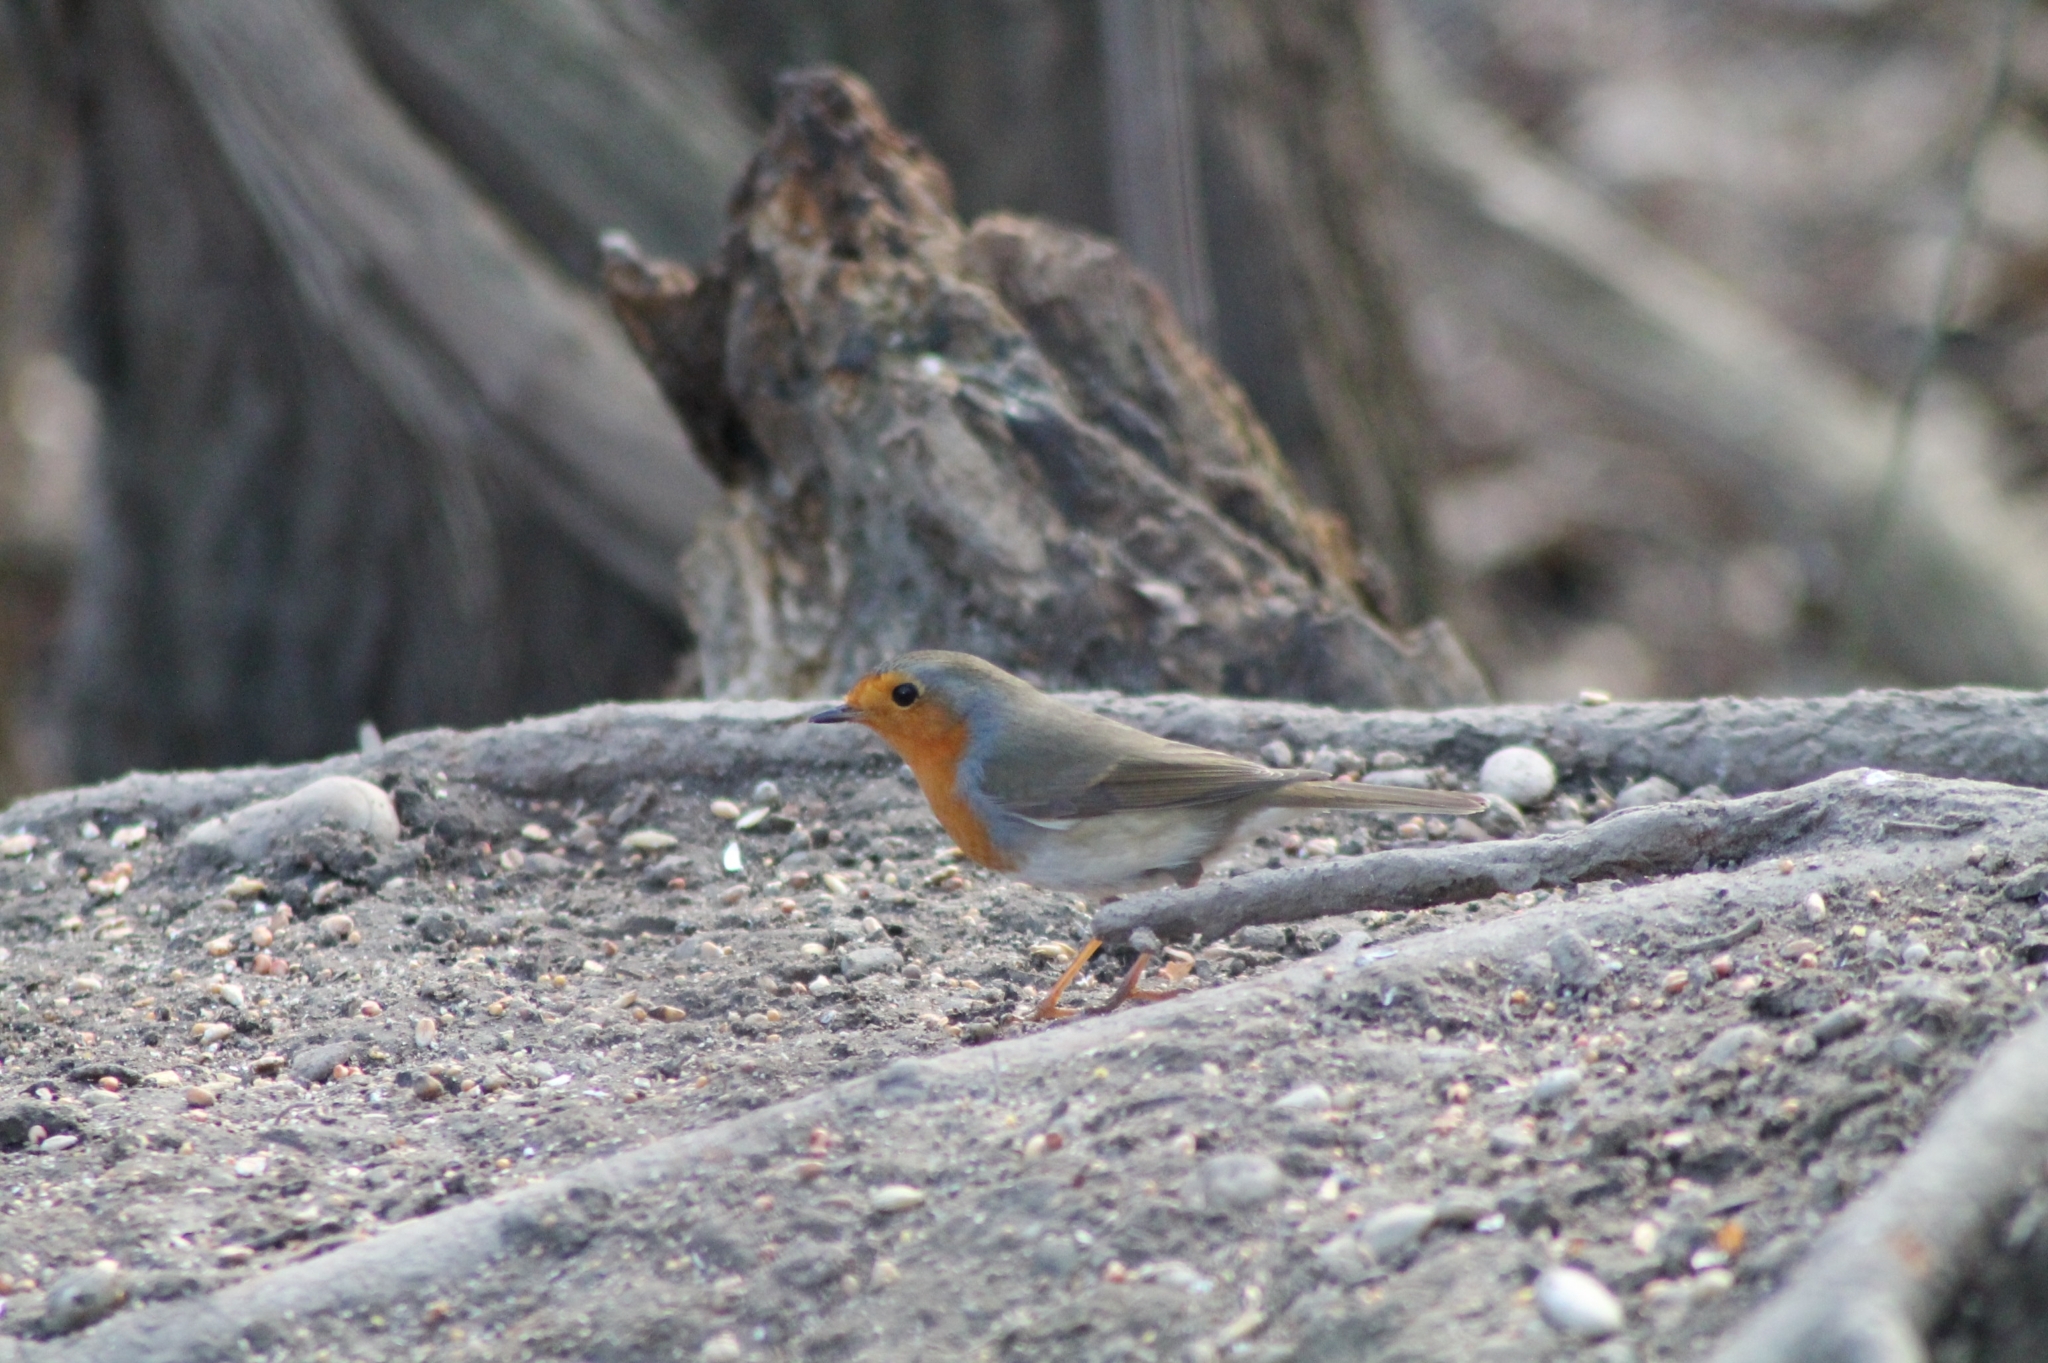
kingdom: Animalia
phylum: Chordata
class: Aves
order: Passeriformes
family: Muscicapidae
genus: Erithacus
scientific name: Erithacus rubecula
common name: European robin
